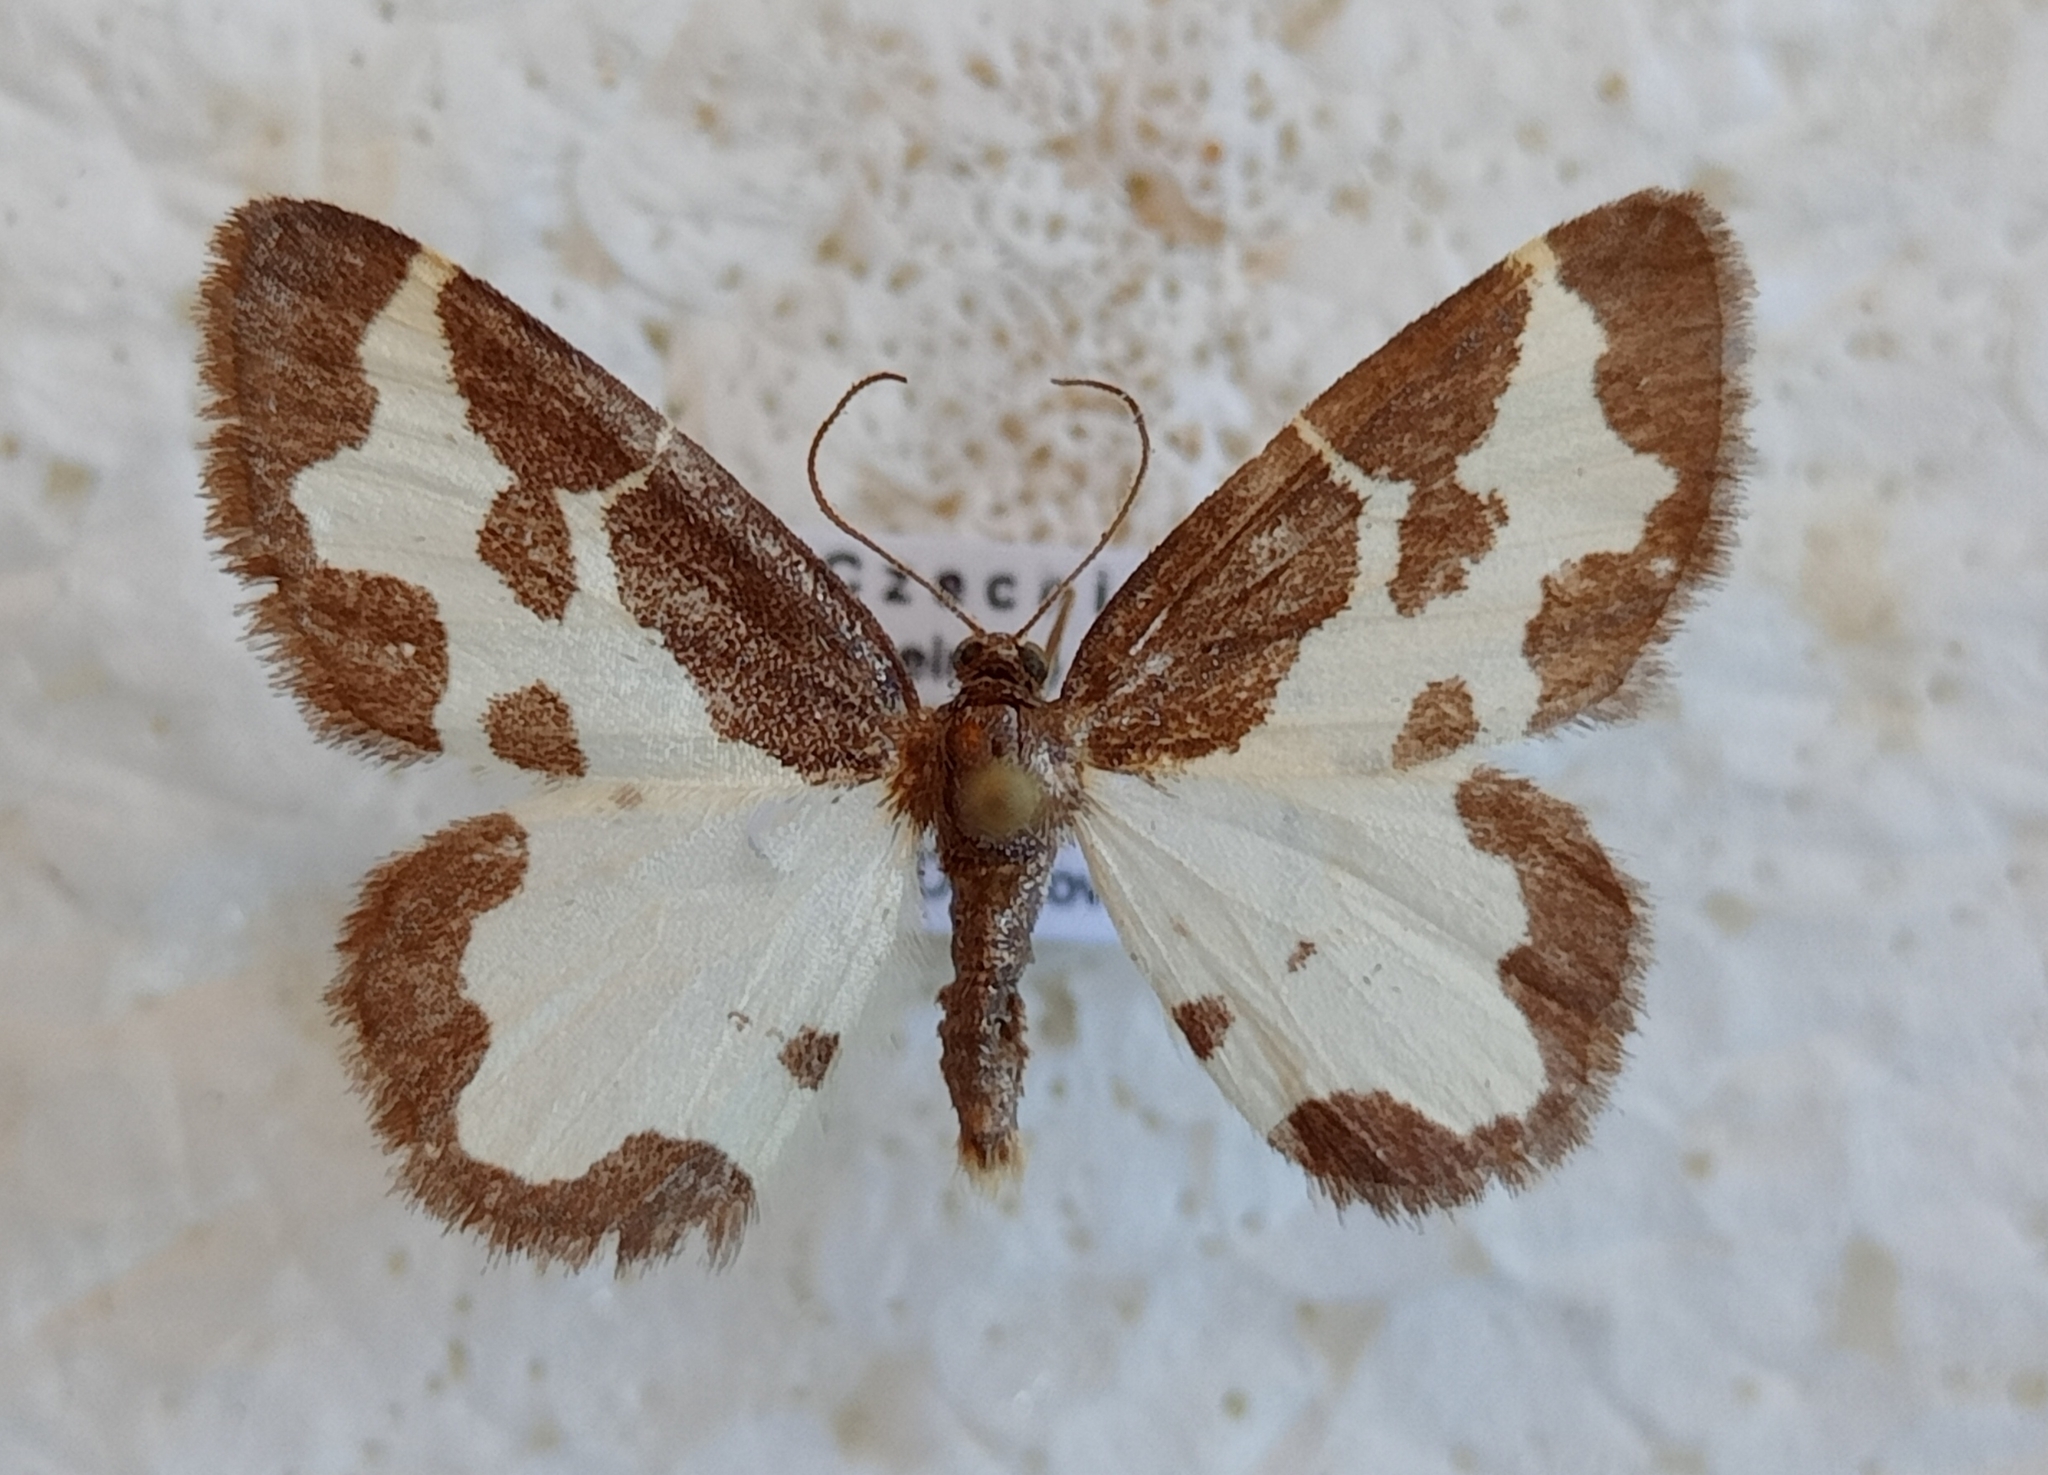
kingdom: Animalia
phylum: Arthropoda
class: Insecta
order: Lepidoptera
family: Geometridae
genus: Lomaspilis
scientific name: Lomaspilis marginata
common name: Clouded border
